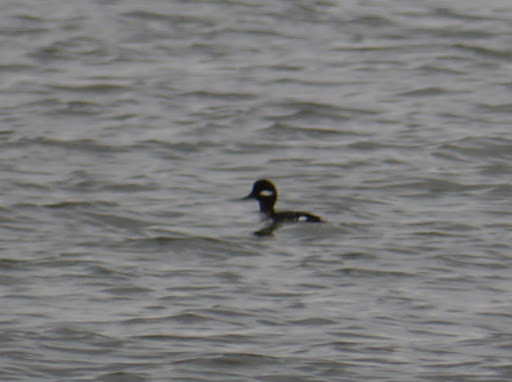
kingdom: Animalia
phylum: Chordata
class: Aves
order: Anseriformes
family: Anatidae
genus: Bucephala
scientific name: Bucephala albeola
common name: Bufflehead
